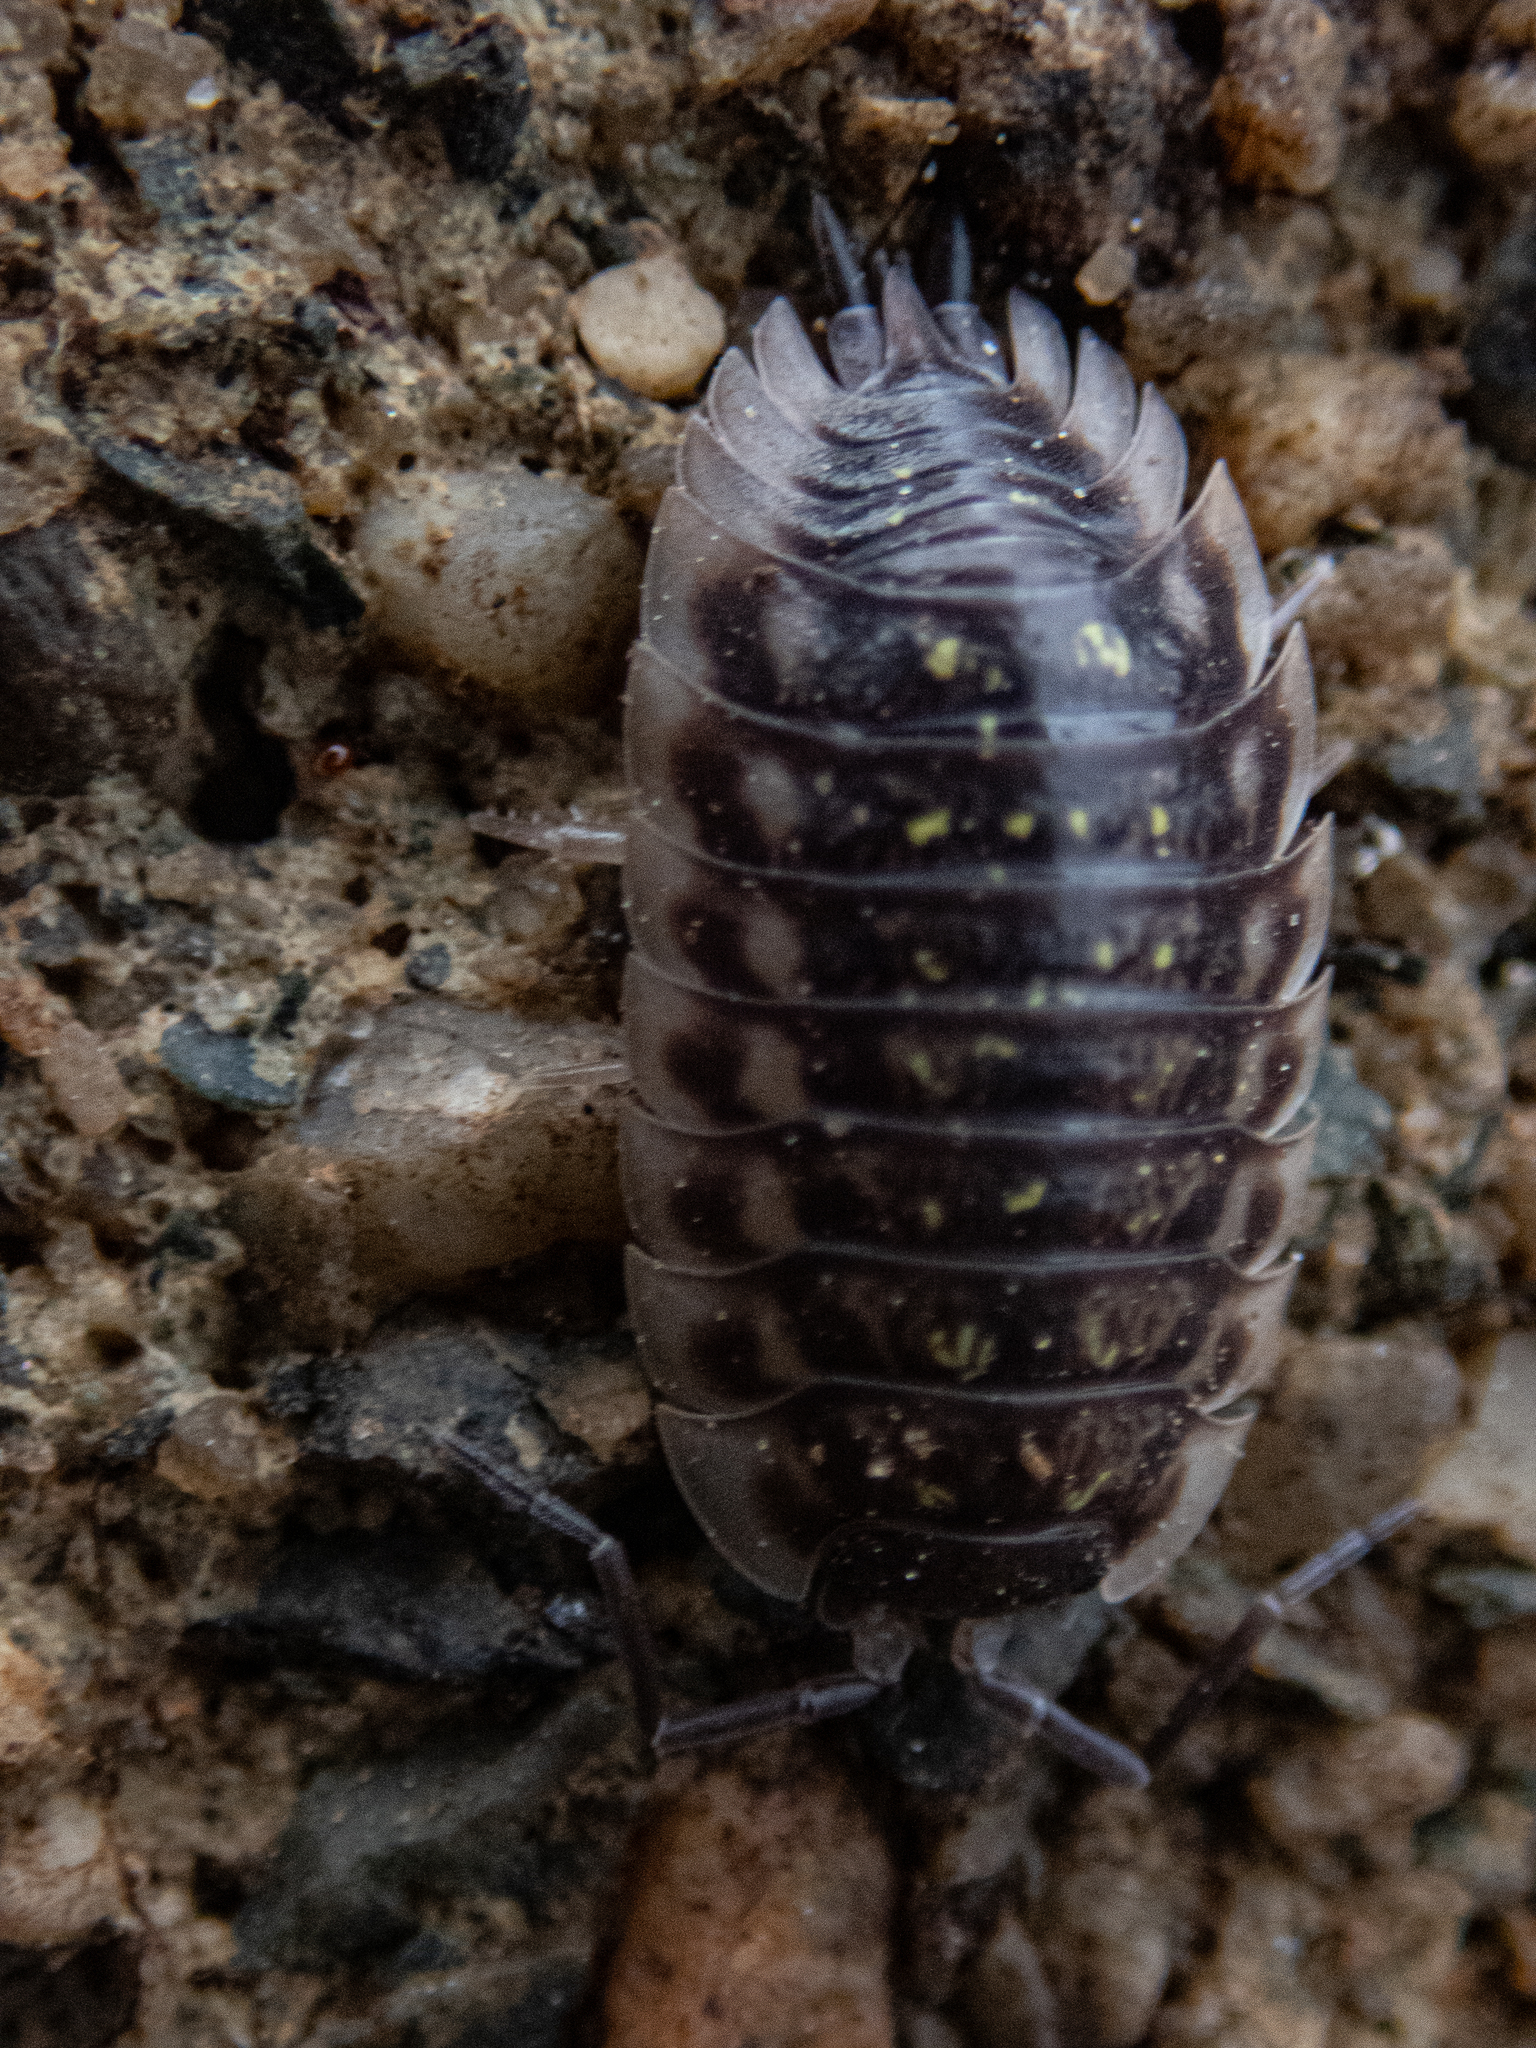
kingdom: Animalia
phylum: Arthropoda
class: Malacostraca
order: Isopoda
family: Oniscidae
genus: Oniscus
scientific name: Oniscus asellus
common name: Common shiny woodlouse
